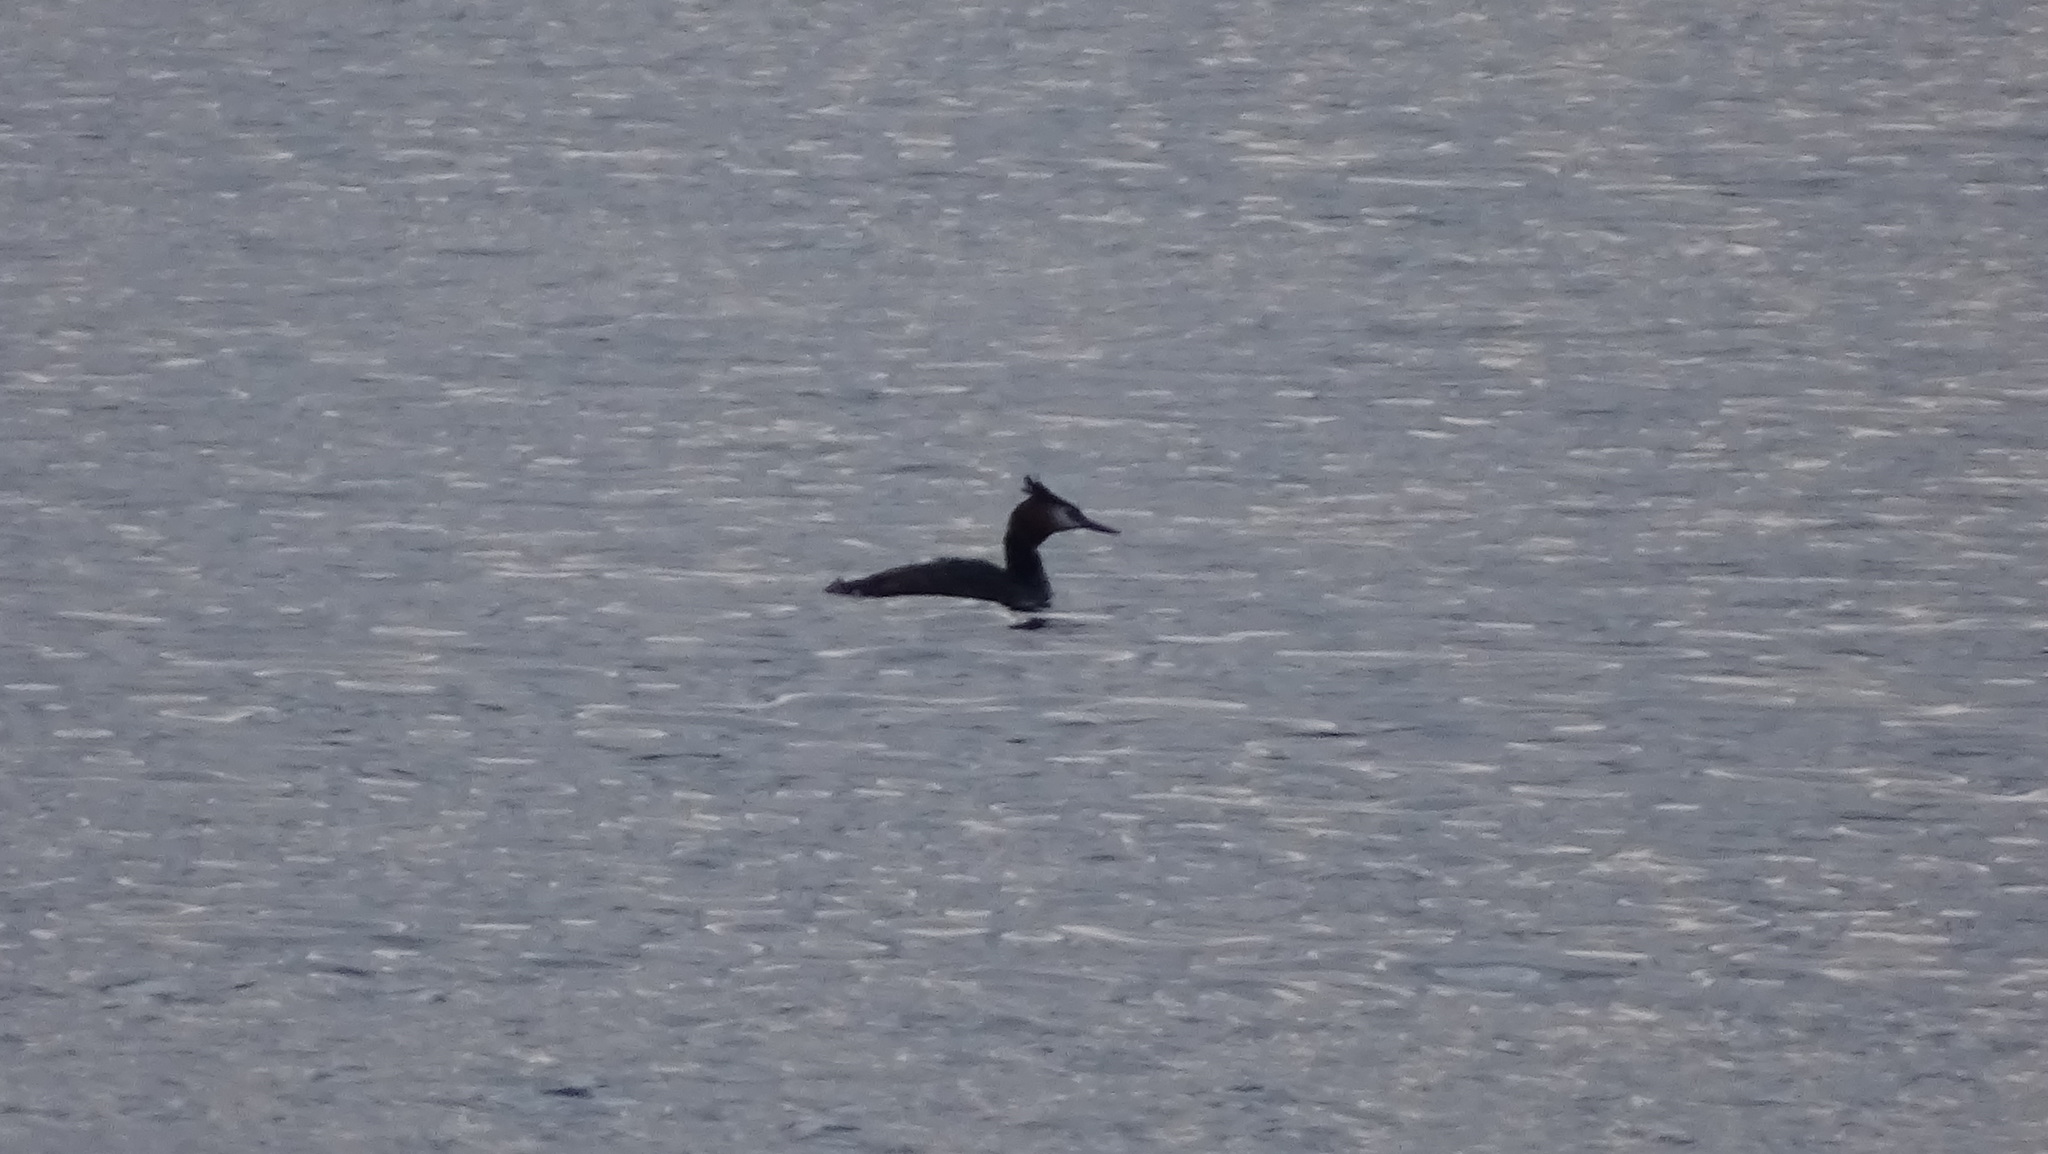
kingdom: Animalia
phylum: Chordata
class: Aves
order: Podicipediformes
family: Podicipedidae
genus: Podiceps
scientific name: Podiceps cristatus
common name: Great crested grebe
